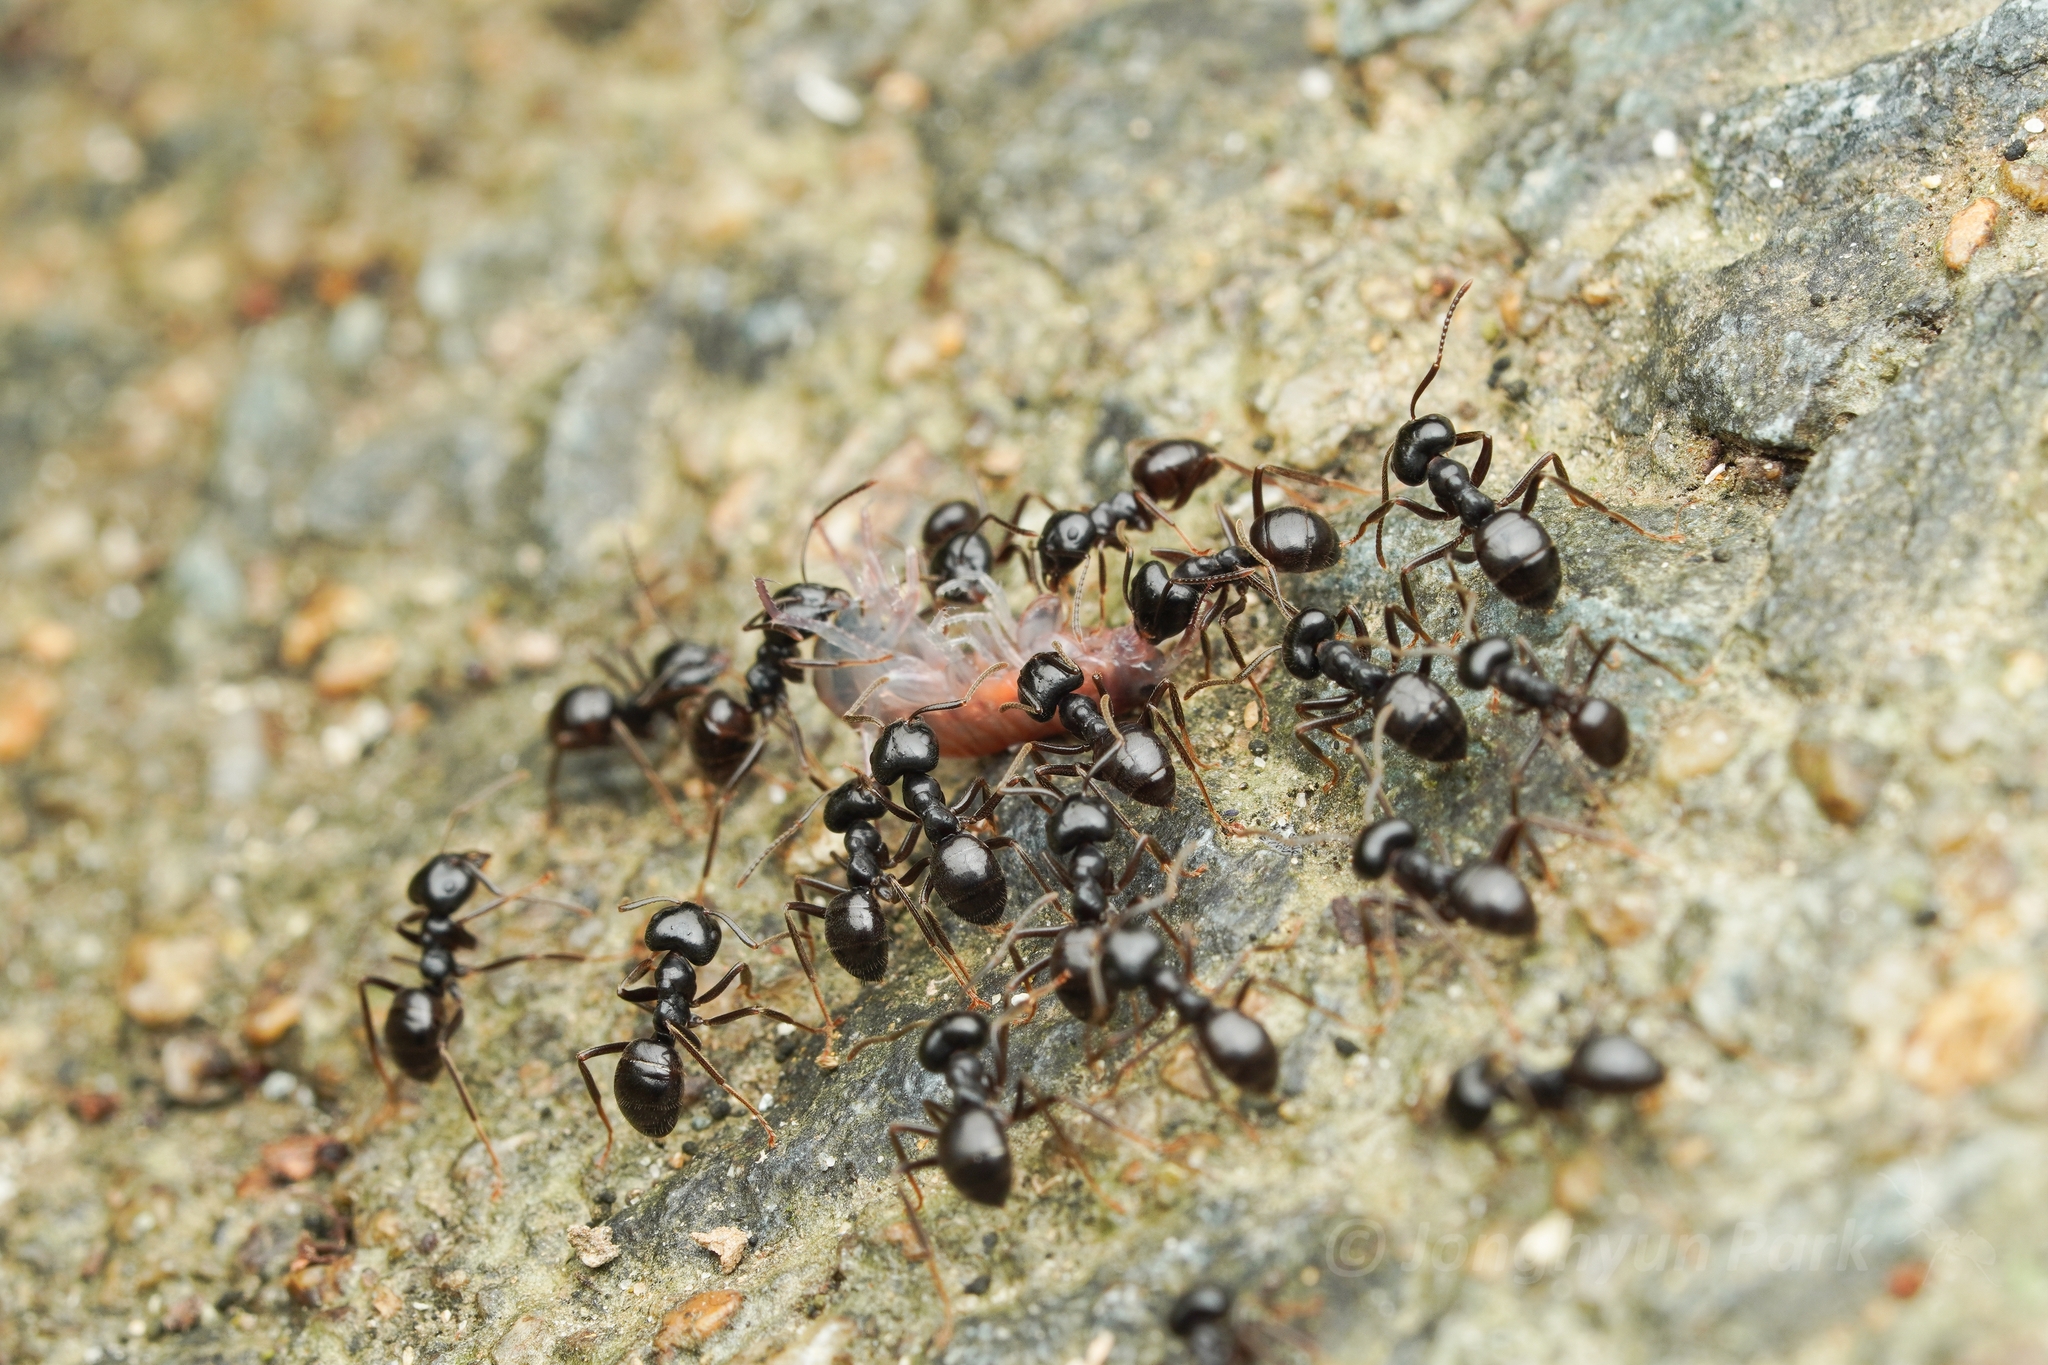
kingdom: Animalia
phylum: Arthropoda
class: Insecta
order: Hymenoptera
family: Formicidae
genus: Lasius
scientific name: Lasius spathepus
